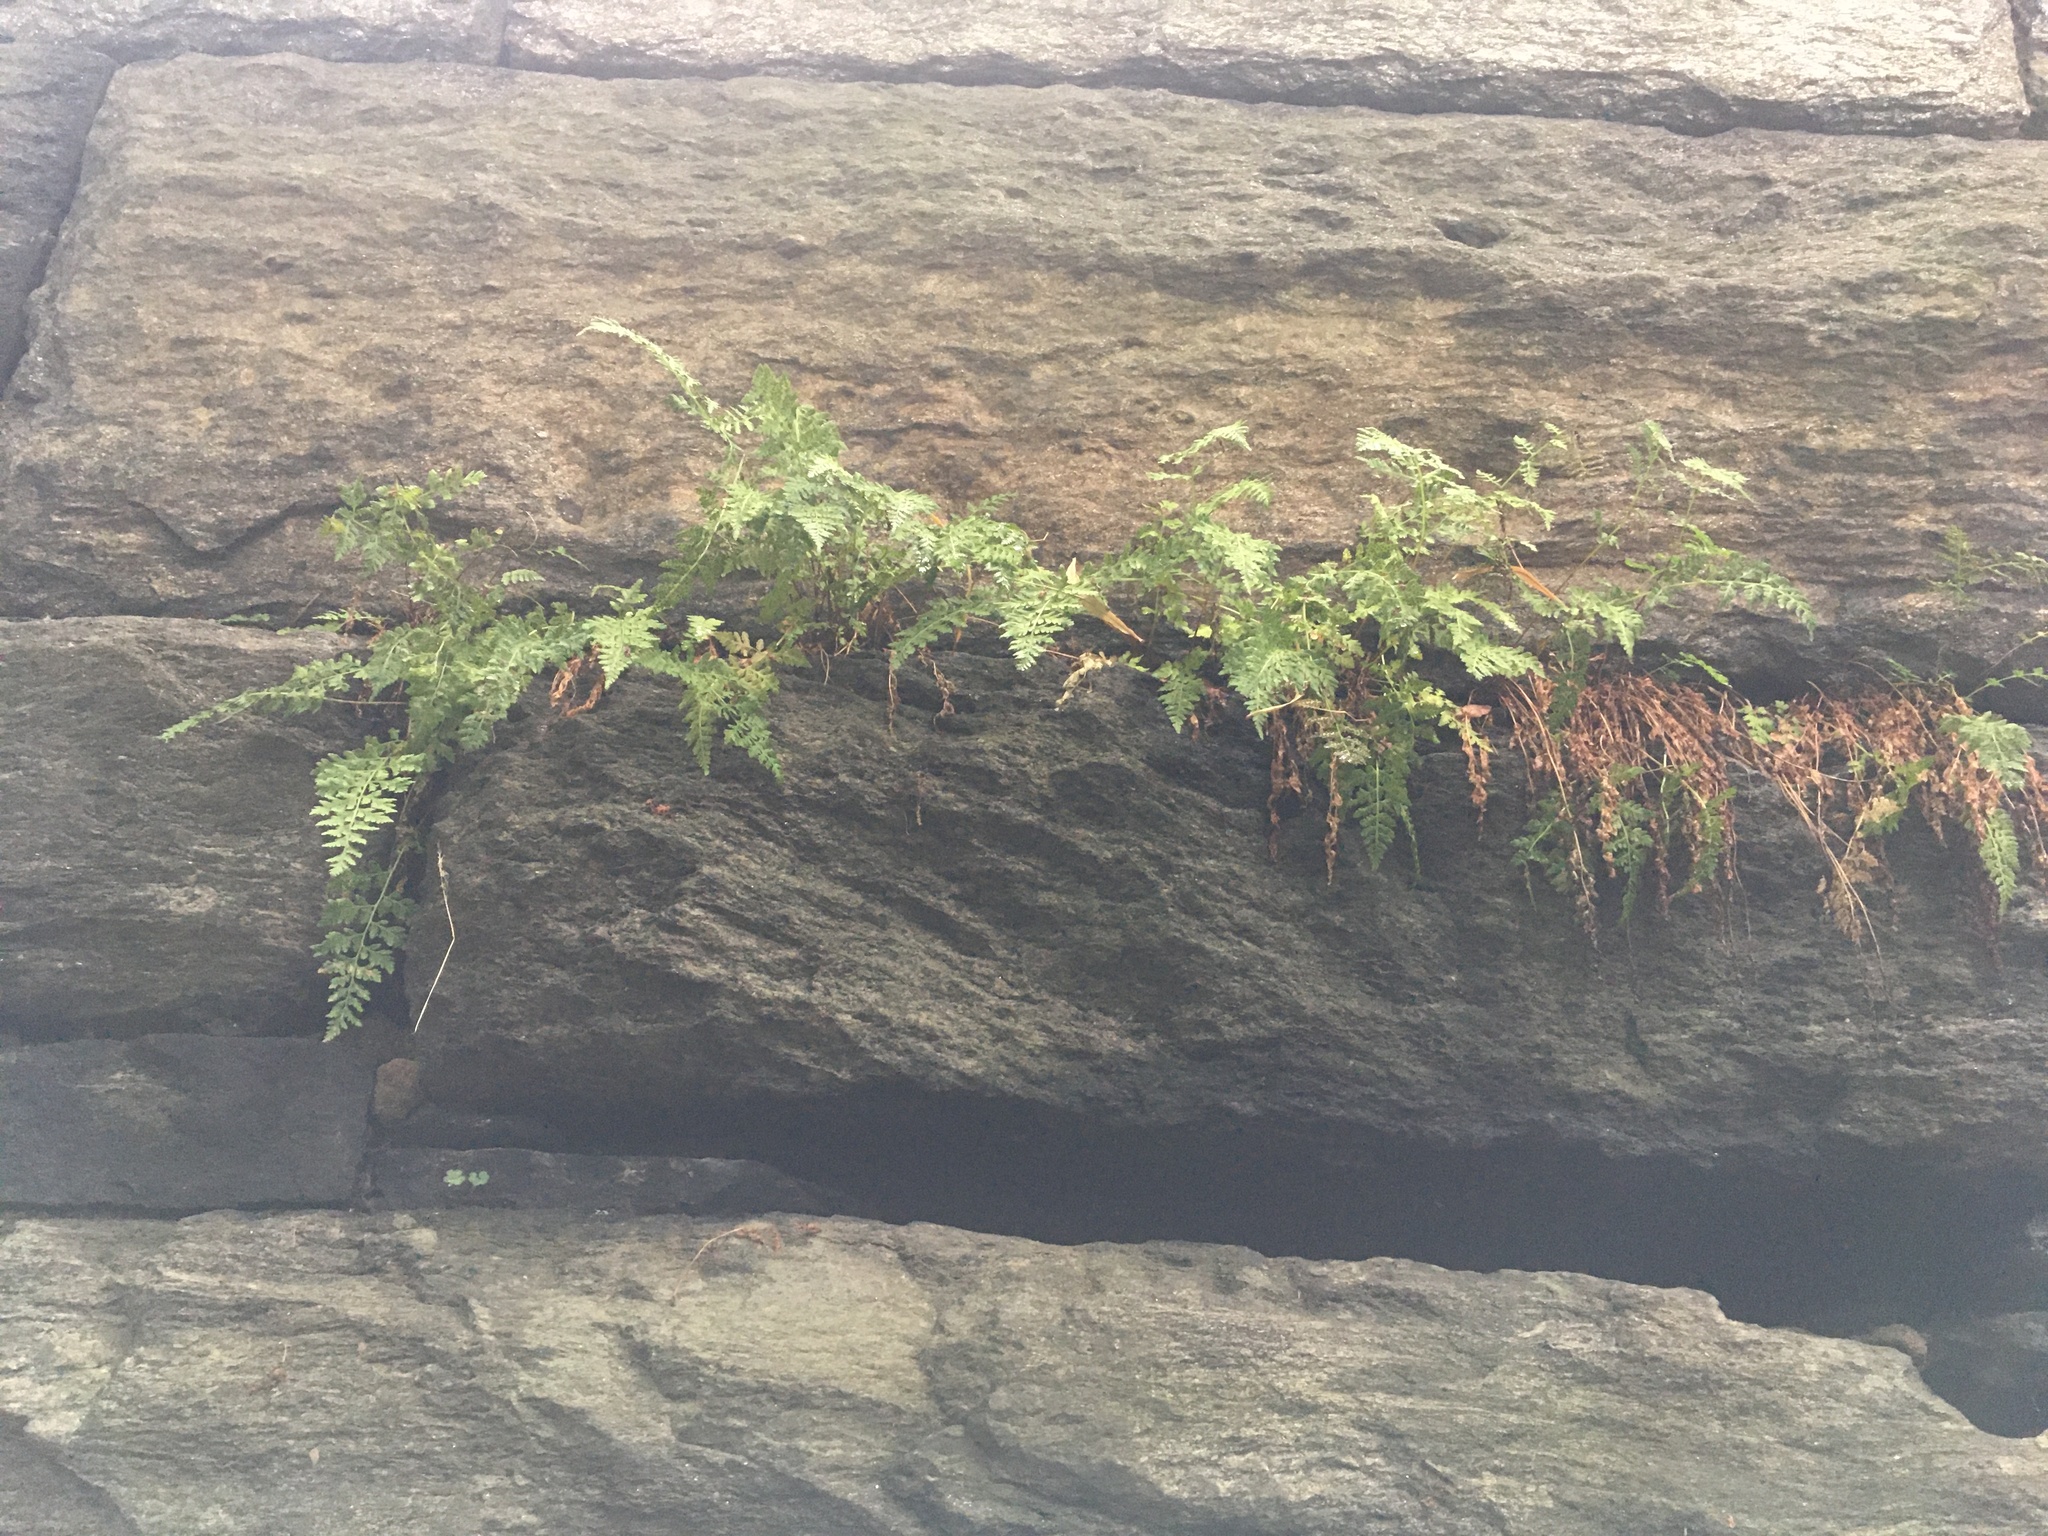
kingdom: Plantae
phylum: Tracheophyta
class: Polypodiopsida
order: Polypodiales
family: Woodsiaceae
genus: Physematium
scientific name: Physematium obtusum
